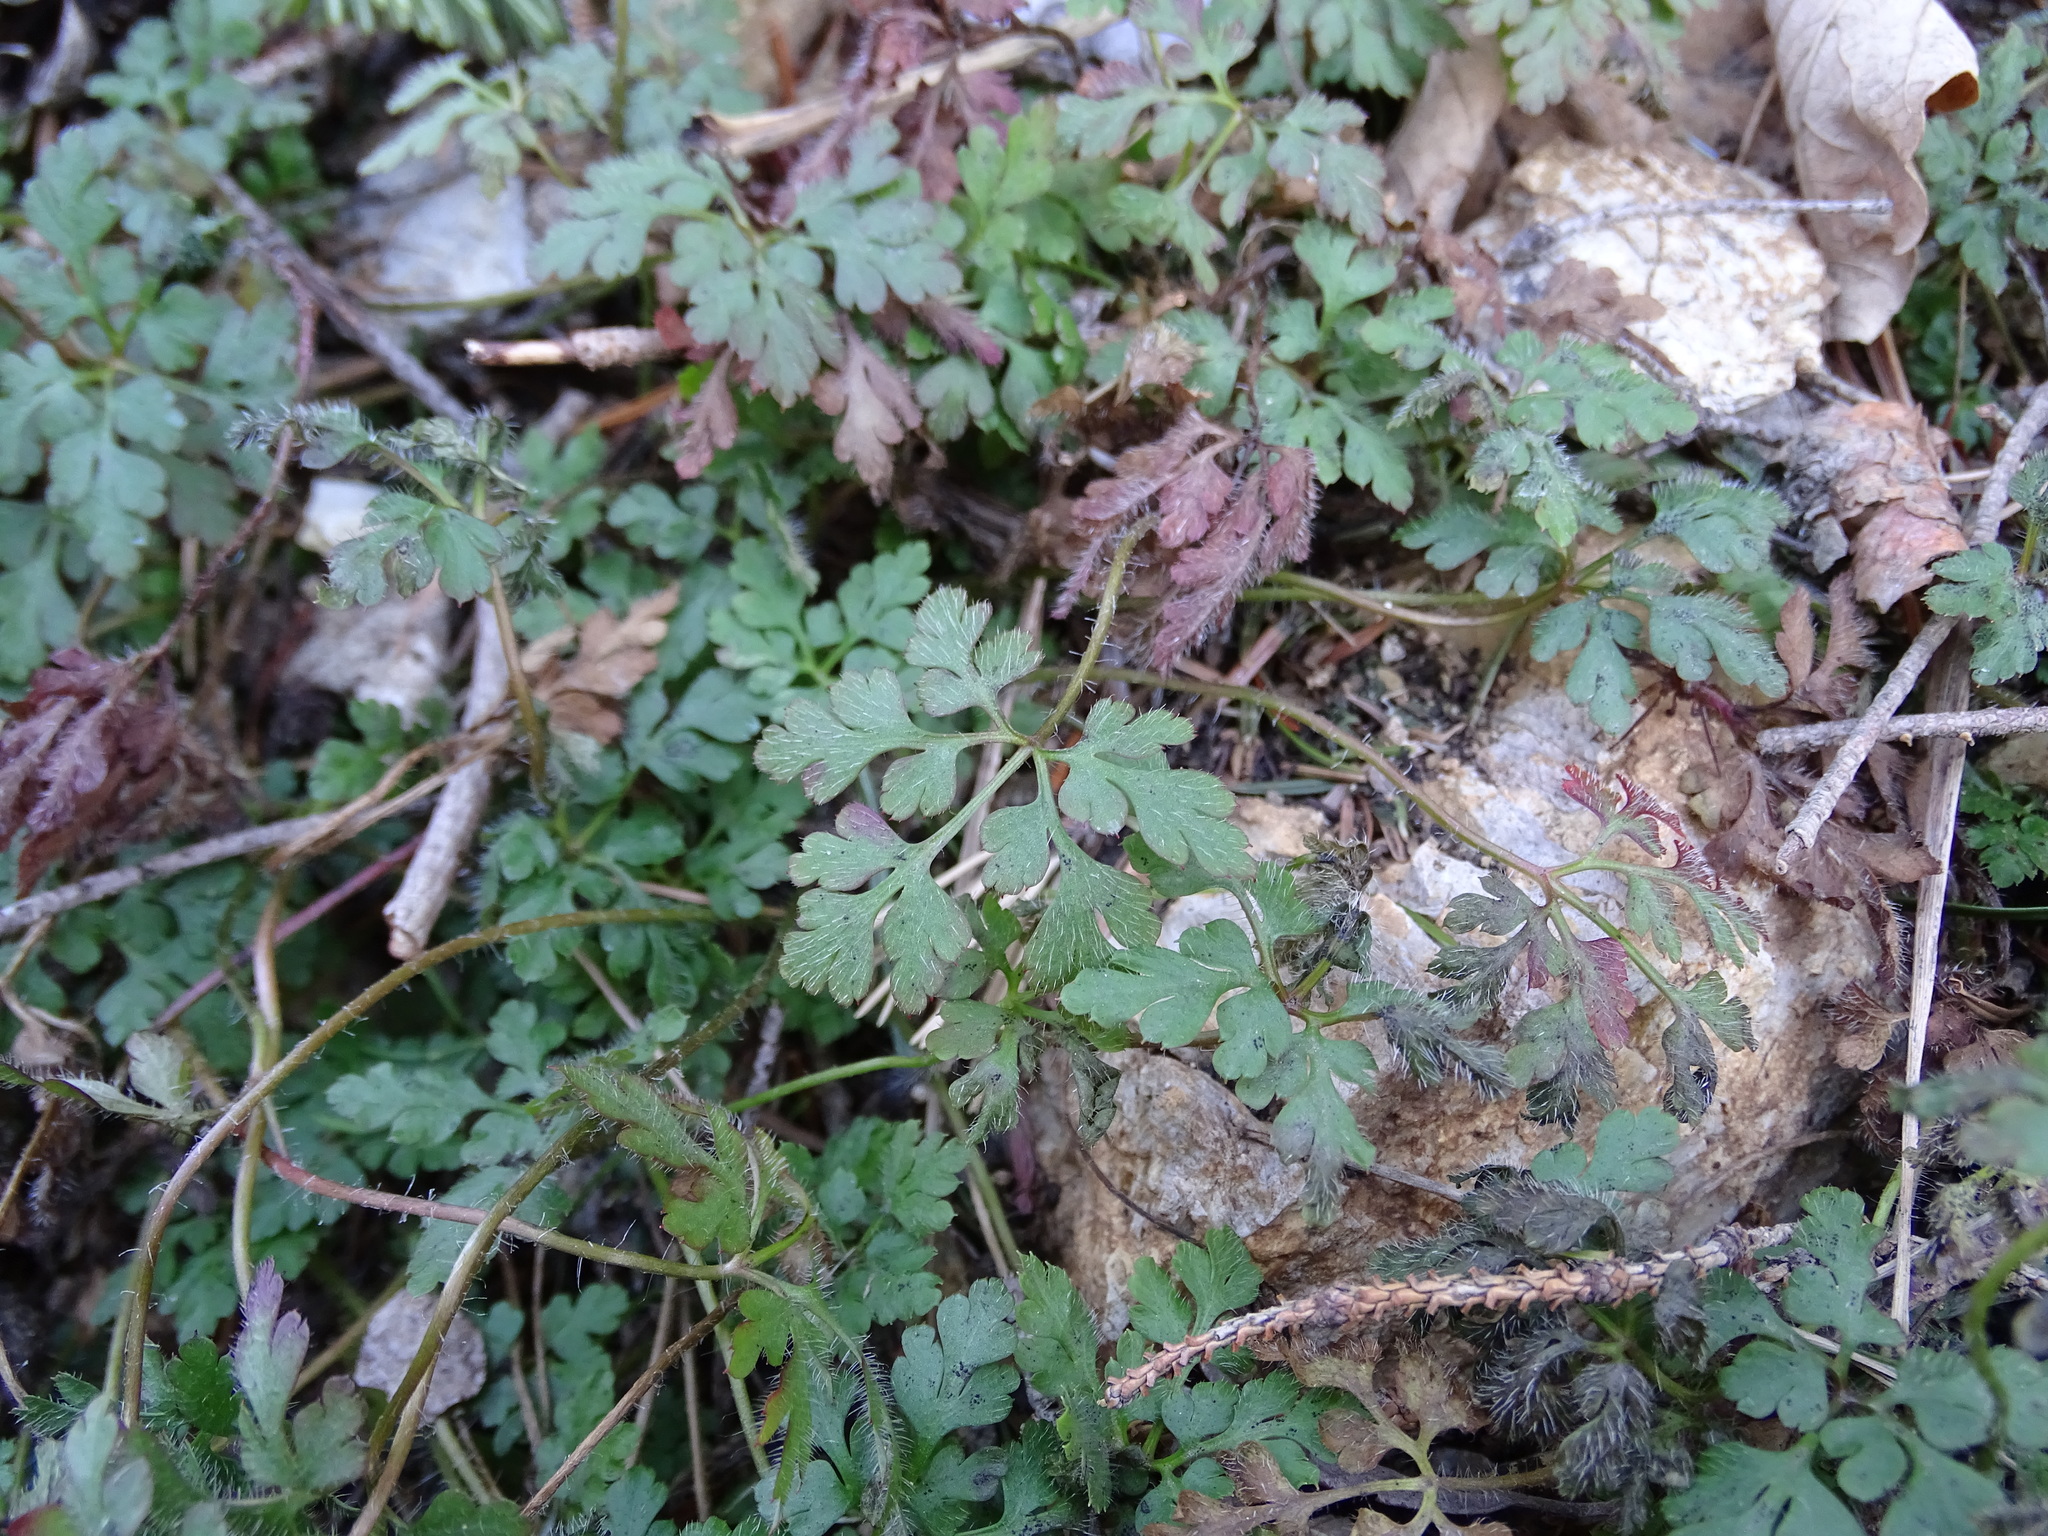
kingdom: Plantae
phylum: Tracheophyta
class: Magnoliopsida
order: Geraniales
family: Geraniaceae
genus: Geranium
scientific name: Geranium robertianum
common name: Herb-robert
